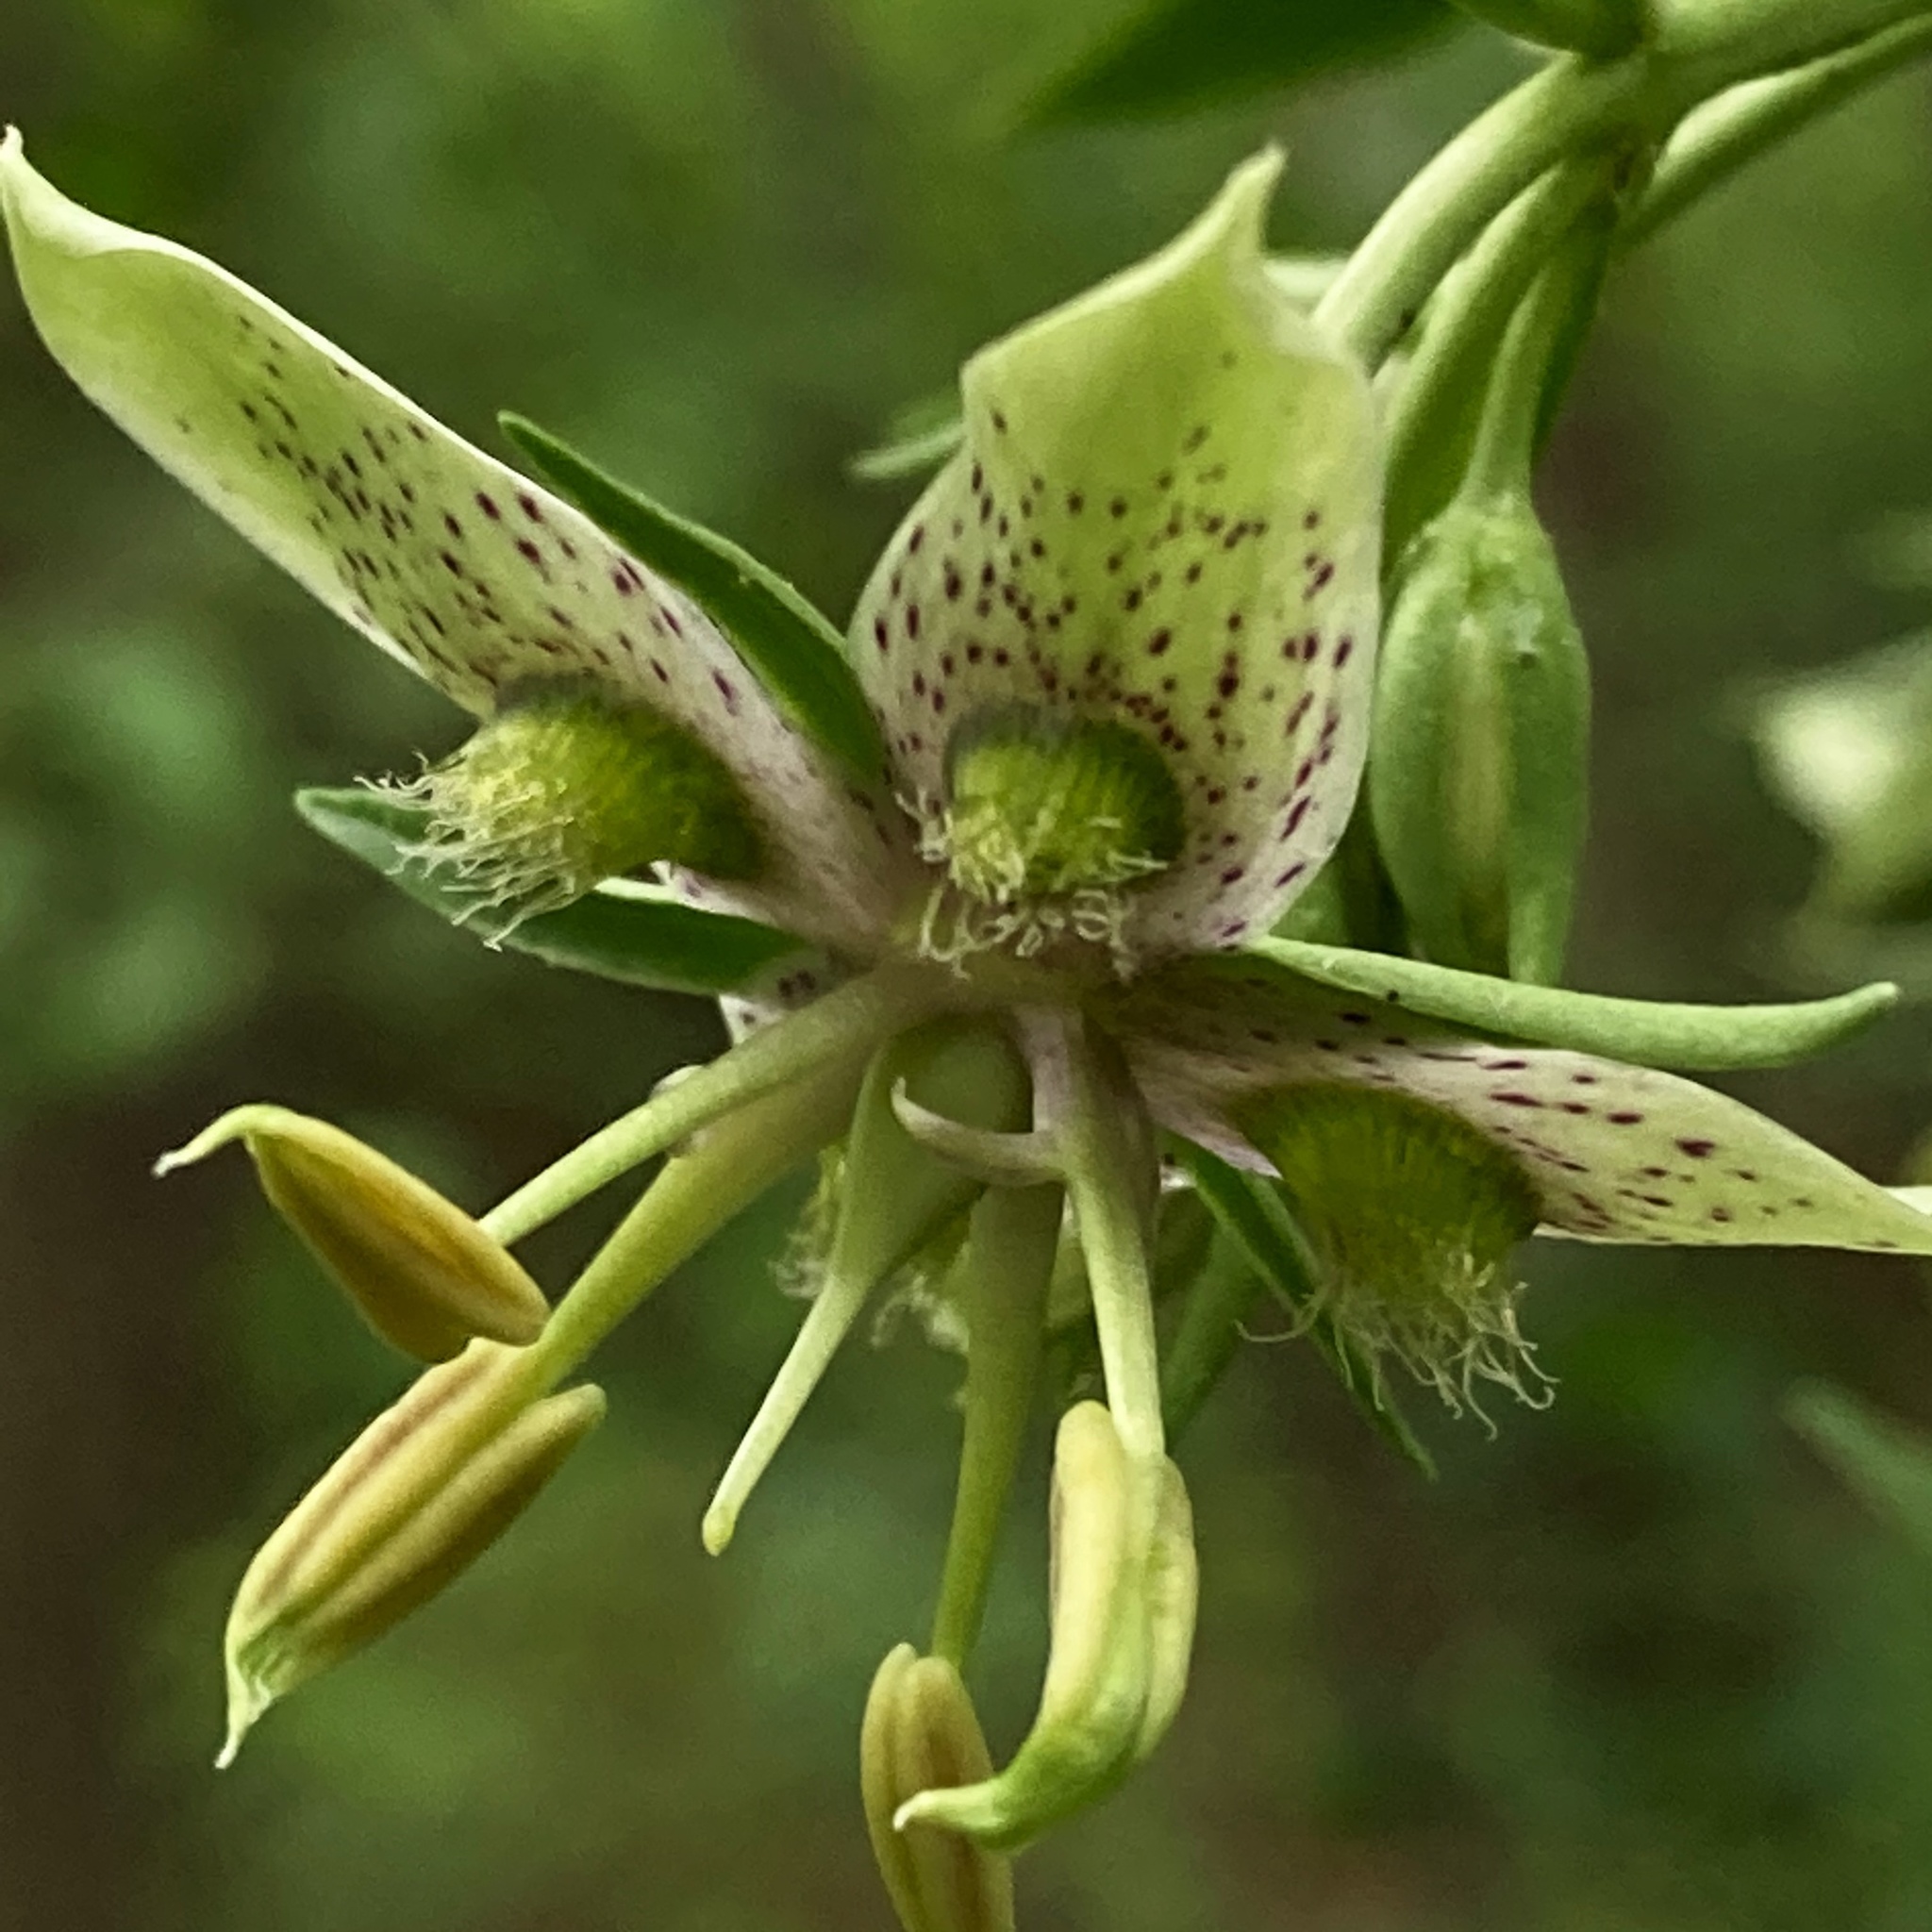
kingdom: Plantae
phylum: Tracheophyta
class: Magnoliopsida
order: Gentianales
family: Gentianaceae
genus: Frasera
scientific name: Frasera caroliniensis
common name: American columbo
